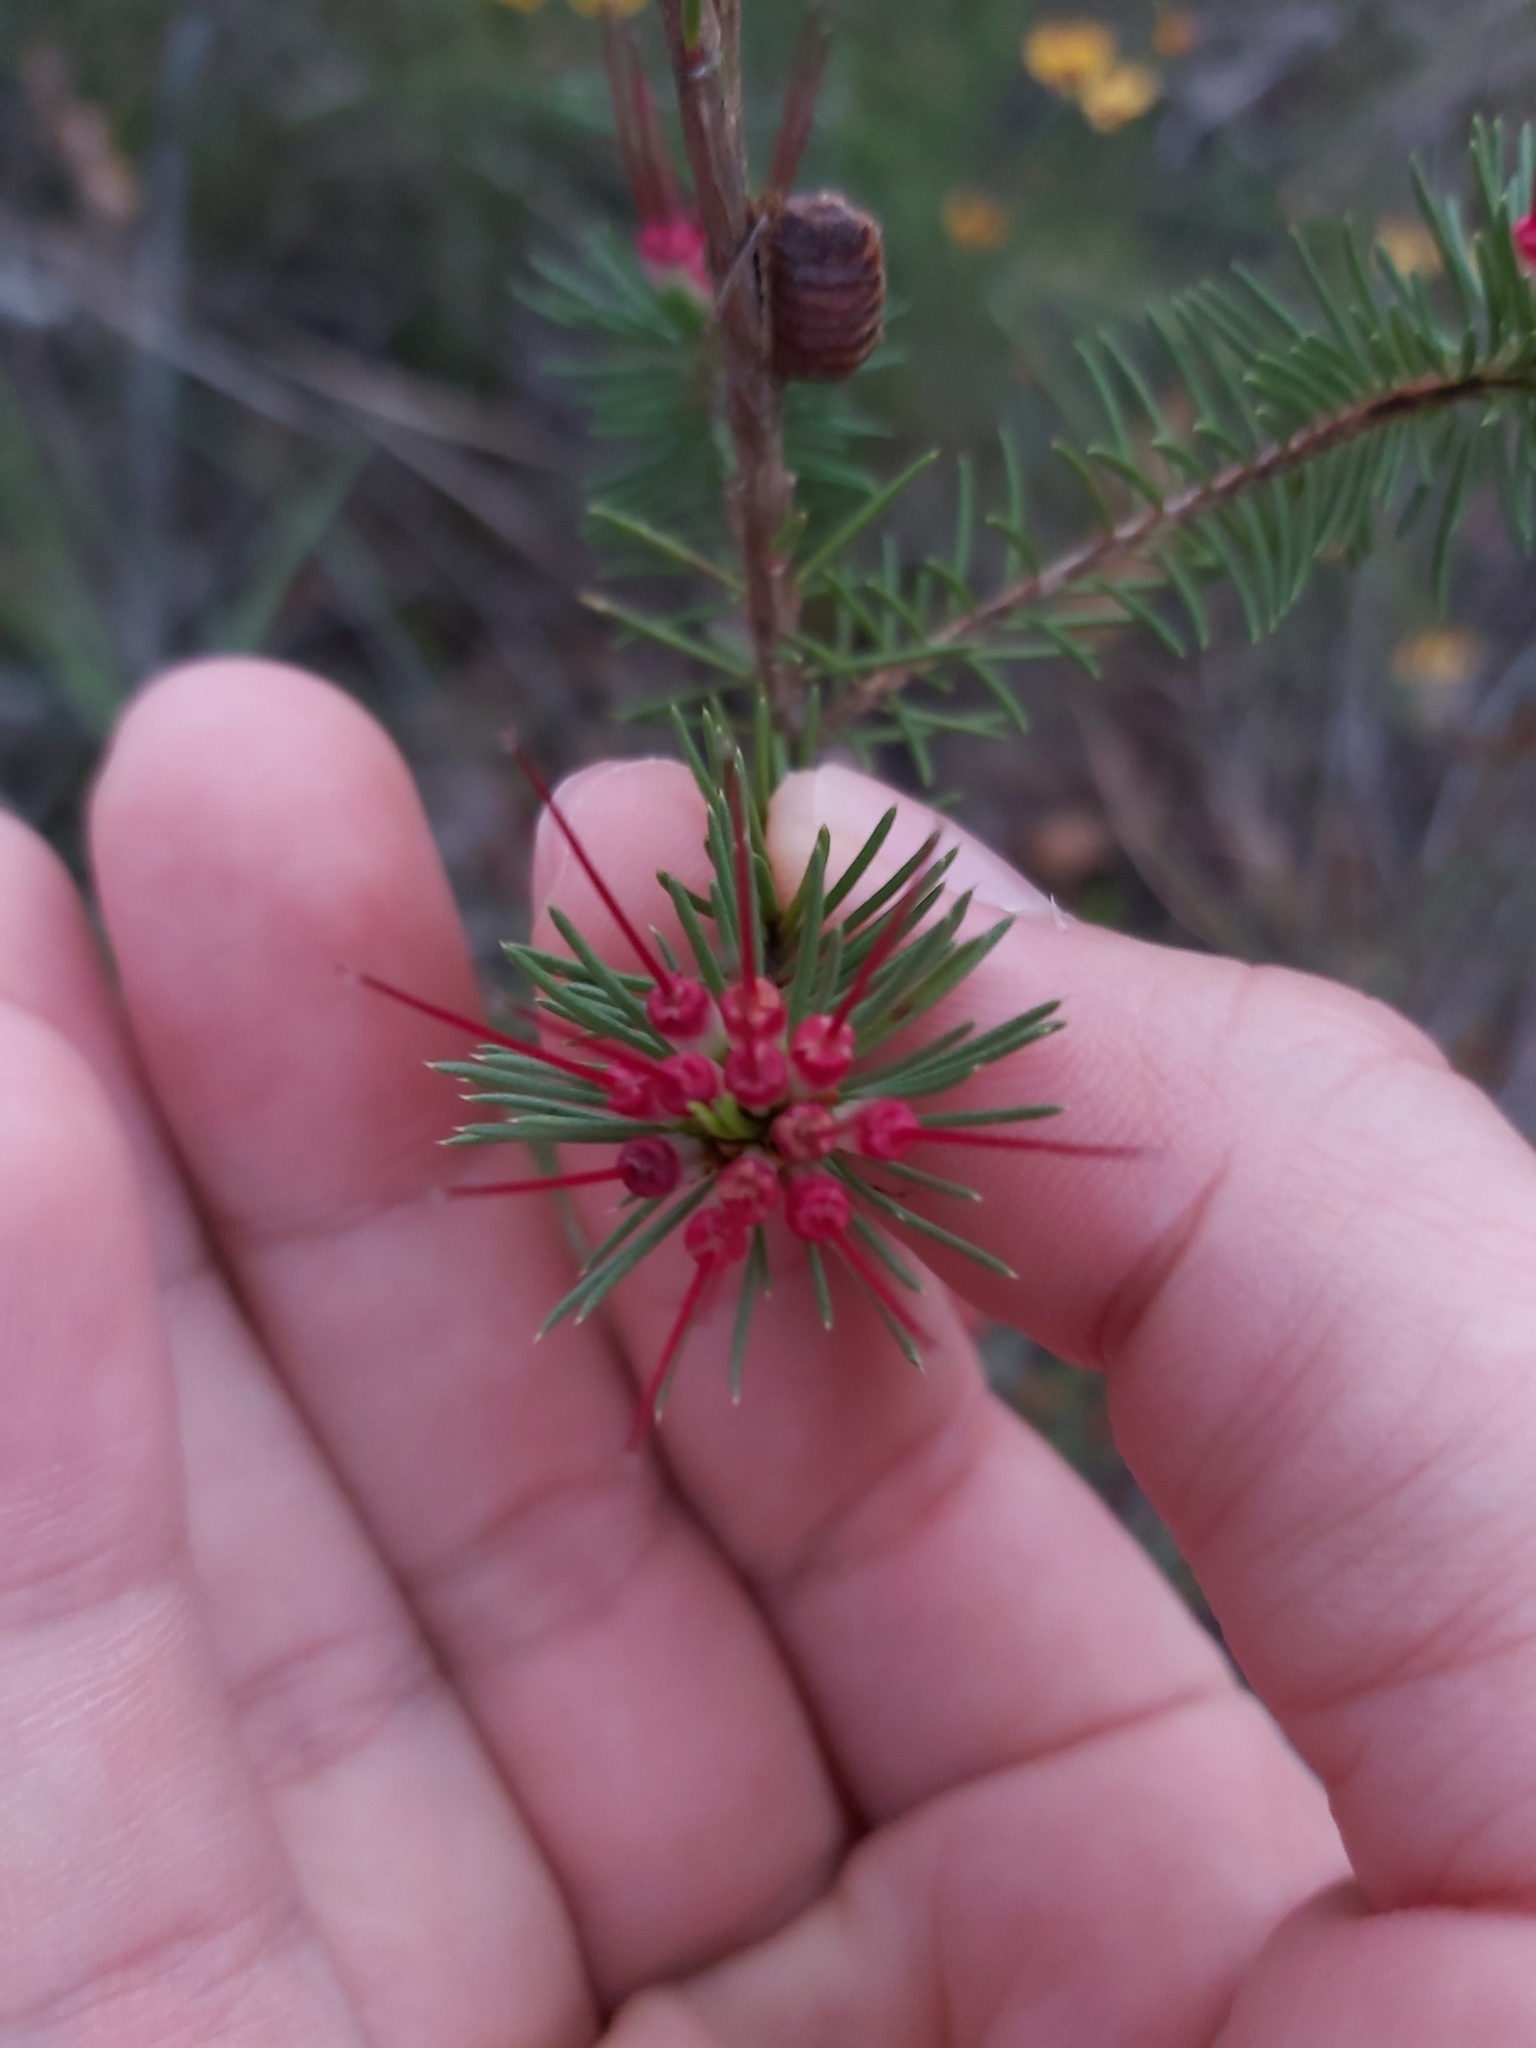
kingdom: Plantae
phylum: Tracheophyta
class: Magnoliopsida
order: Myrtales
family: Myrtaceae
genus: Darwinia
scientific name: Darwinia fascicularis
